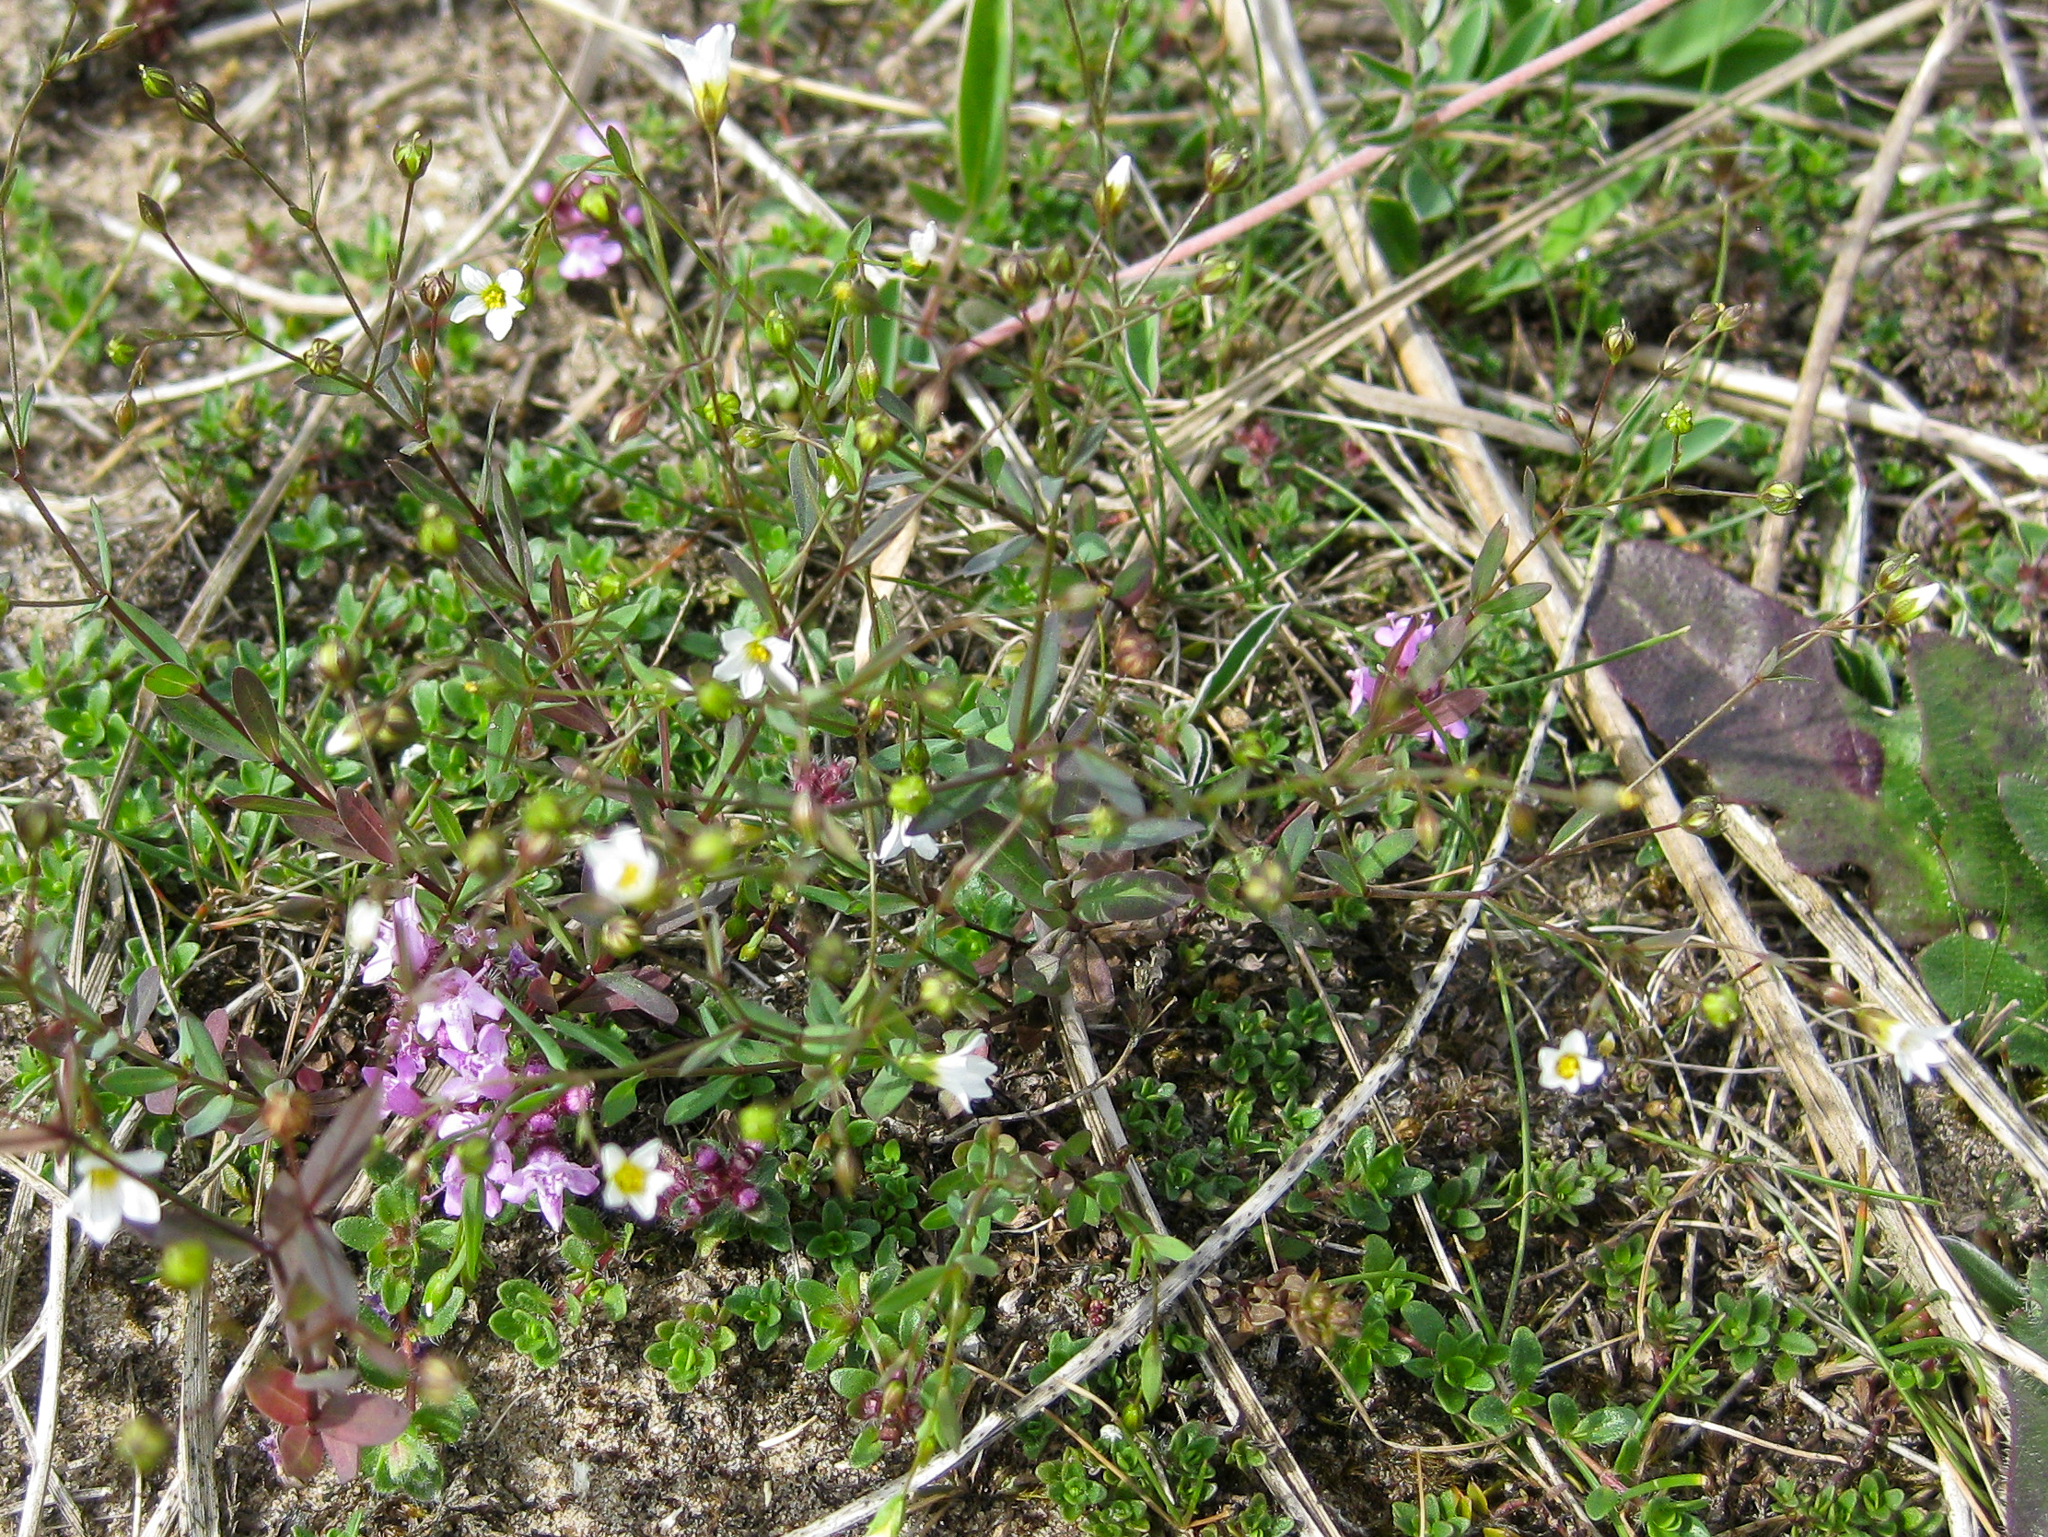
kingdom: Plantae
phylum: Tracheophyta
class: Magnoliopsida
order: Malpighiales
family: Linaceae
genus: Linum
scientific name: Linum catharticum
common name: Fairy flax
